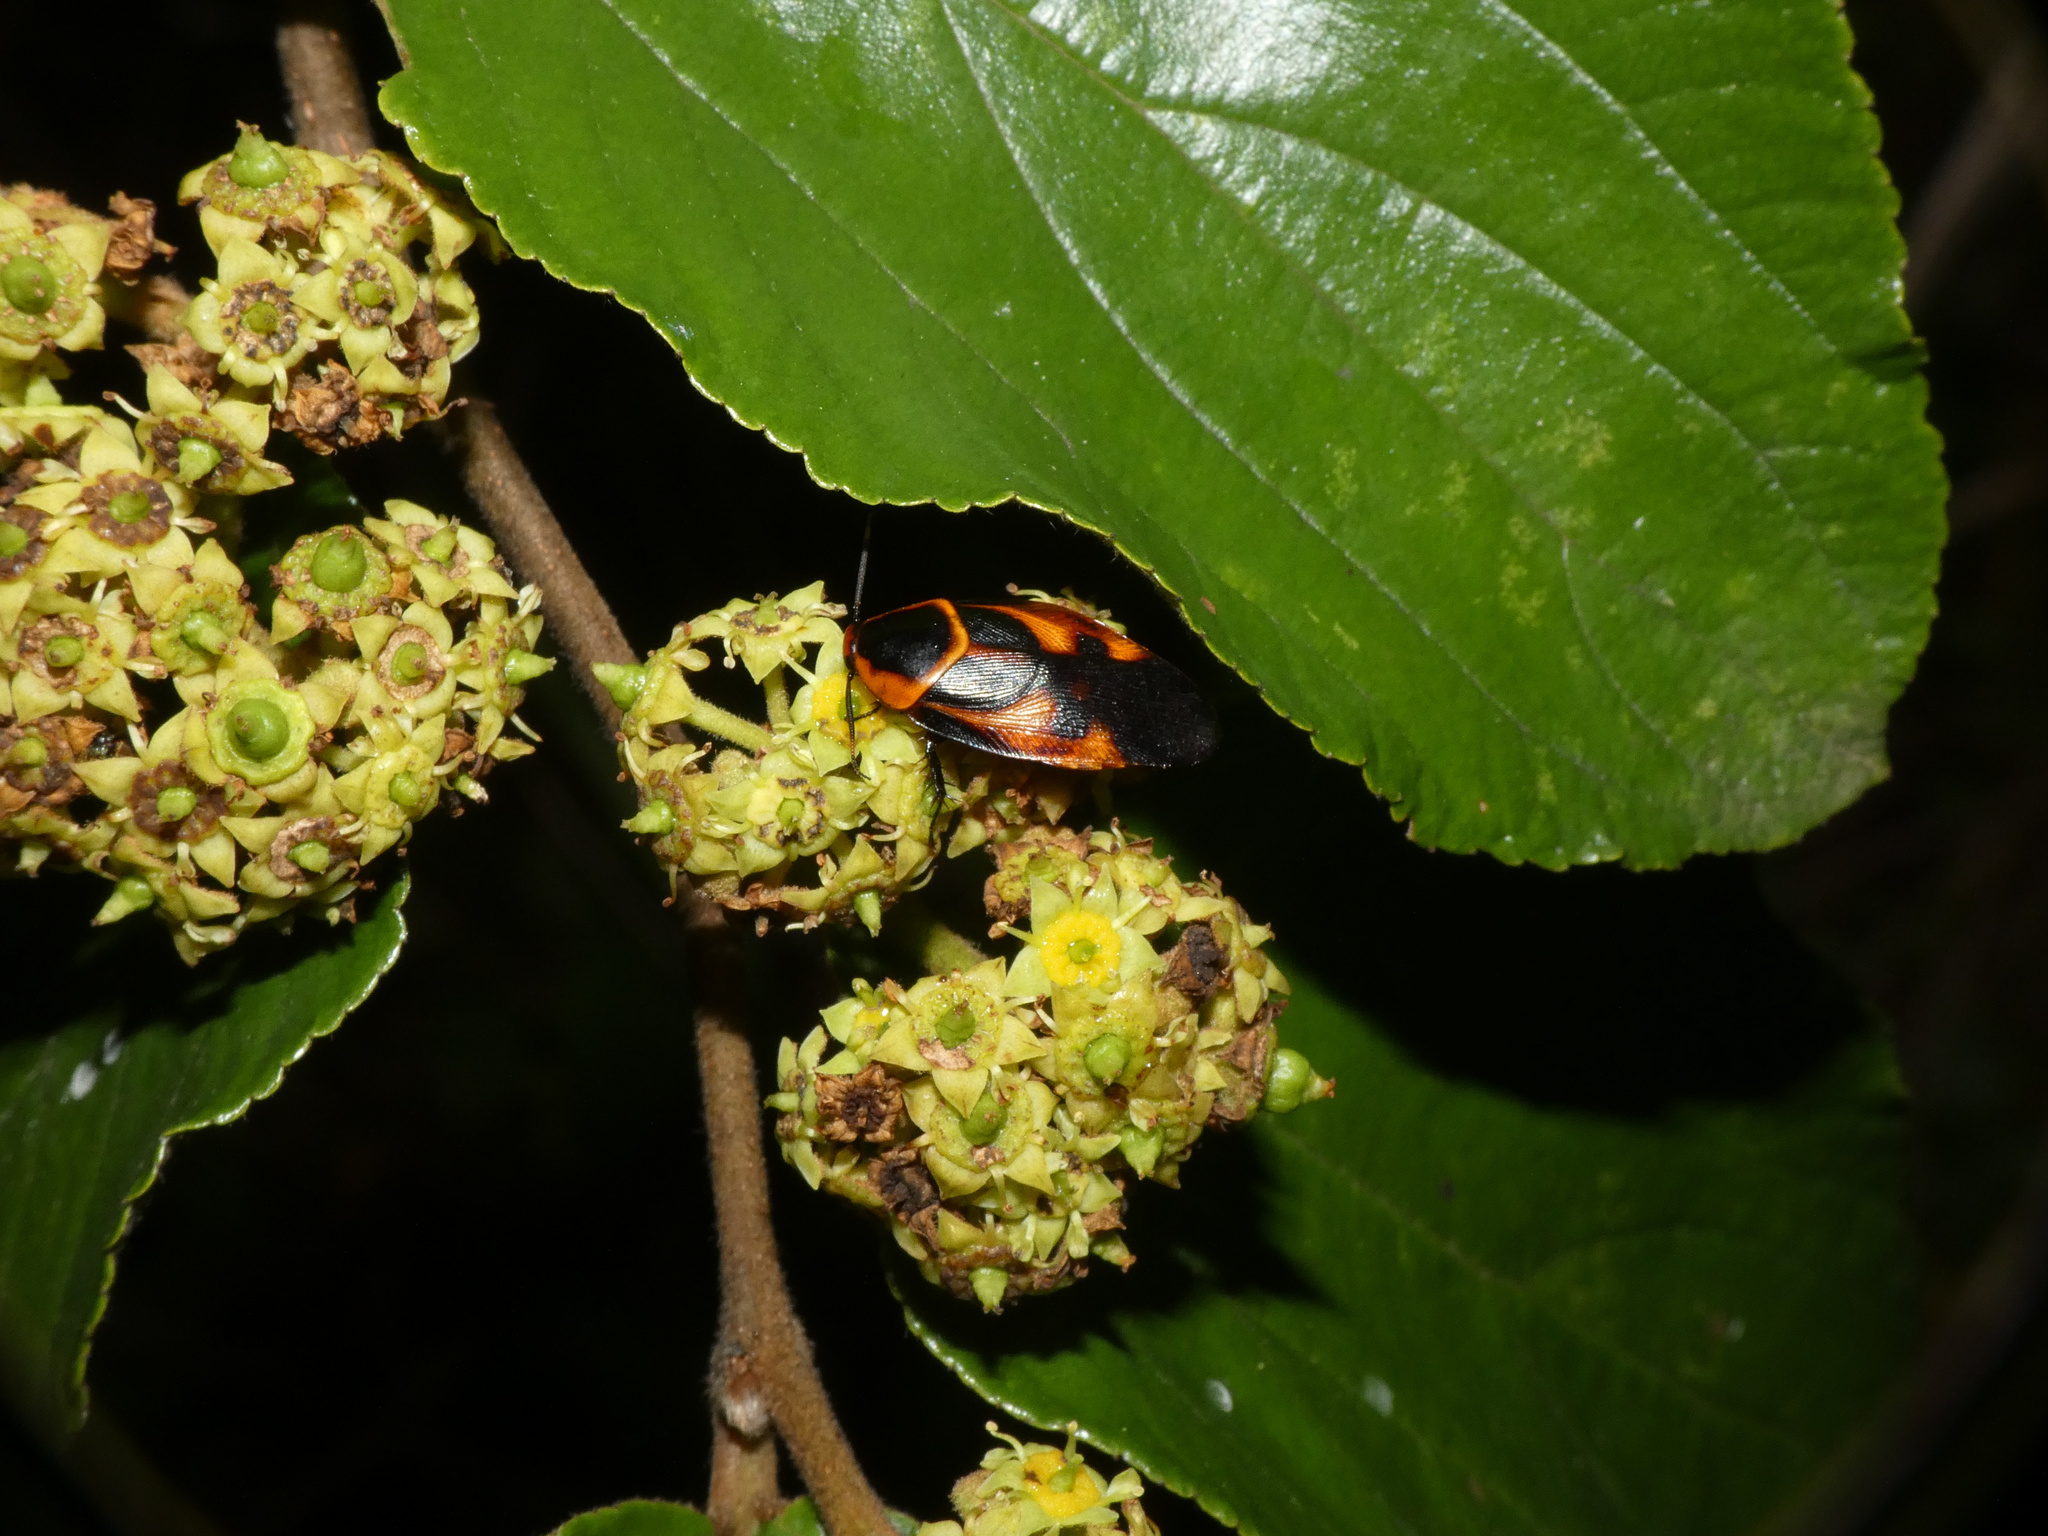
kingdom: Animalia
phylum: Arthropoda
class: Insecta
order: Blattodea
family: Blaberidae
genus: Eustegasta
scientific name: Eustegasta poecila
